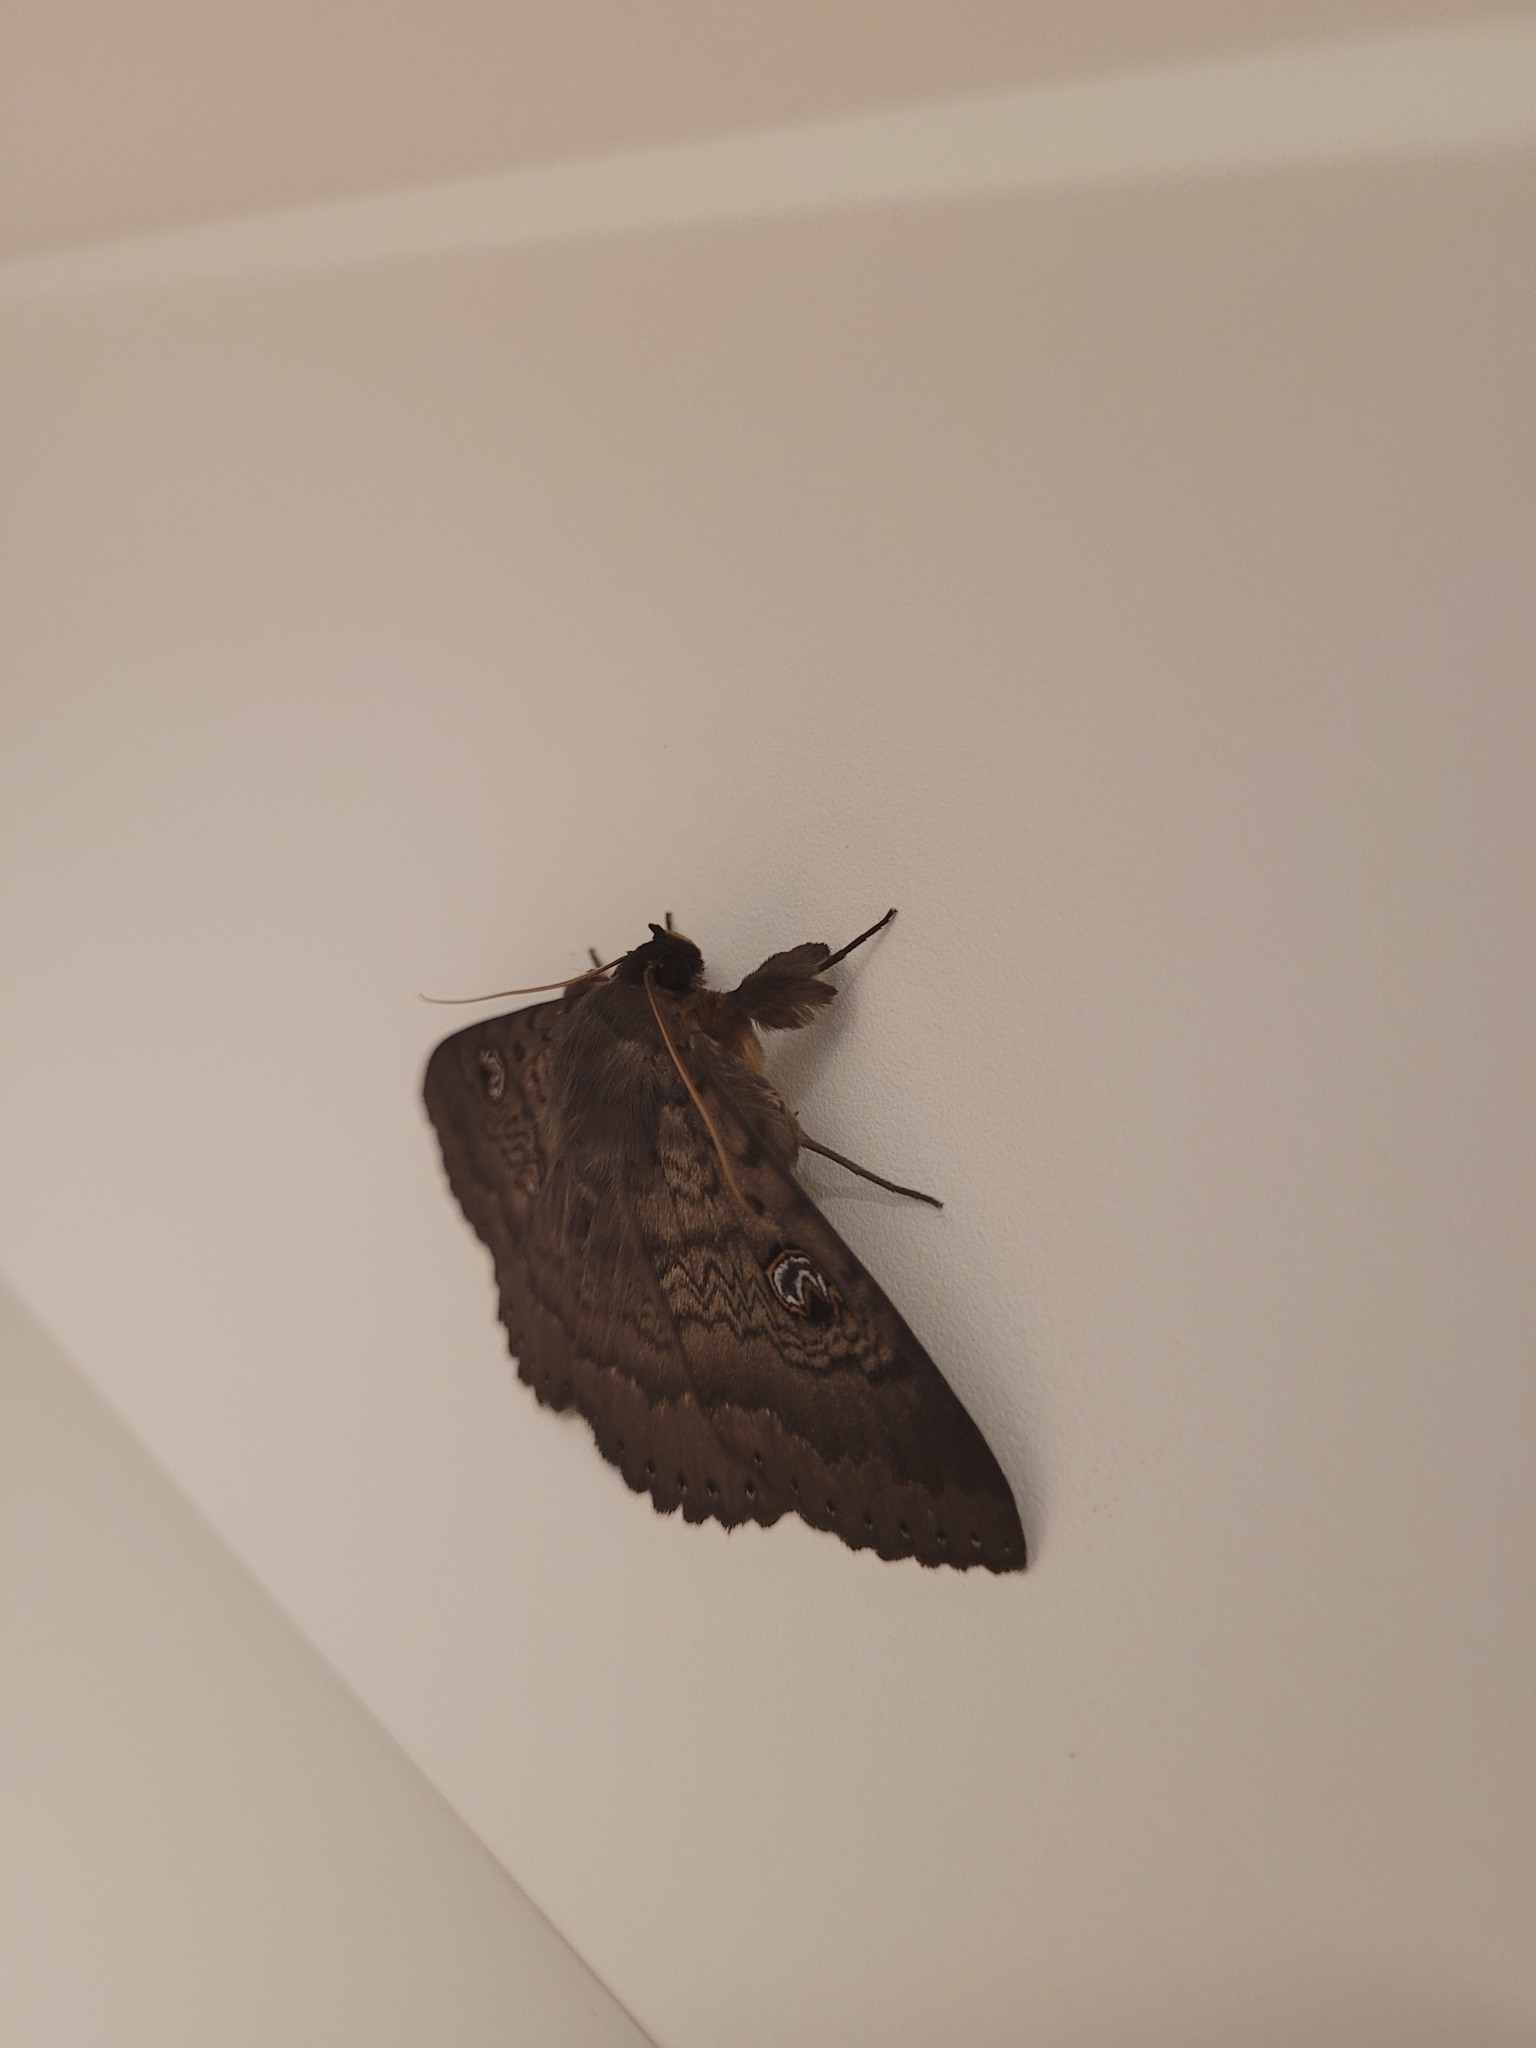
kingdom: Animalia
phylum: Arthropoda
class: Insecta
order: Lepidoptera
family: Erebidae
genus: Dasypodia
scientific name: Dasypodia cymatodes
